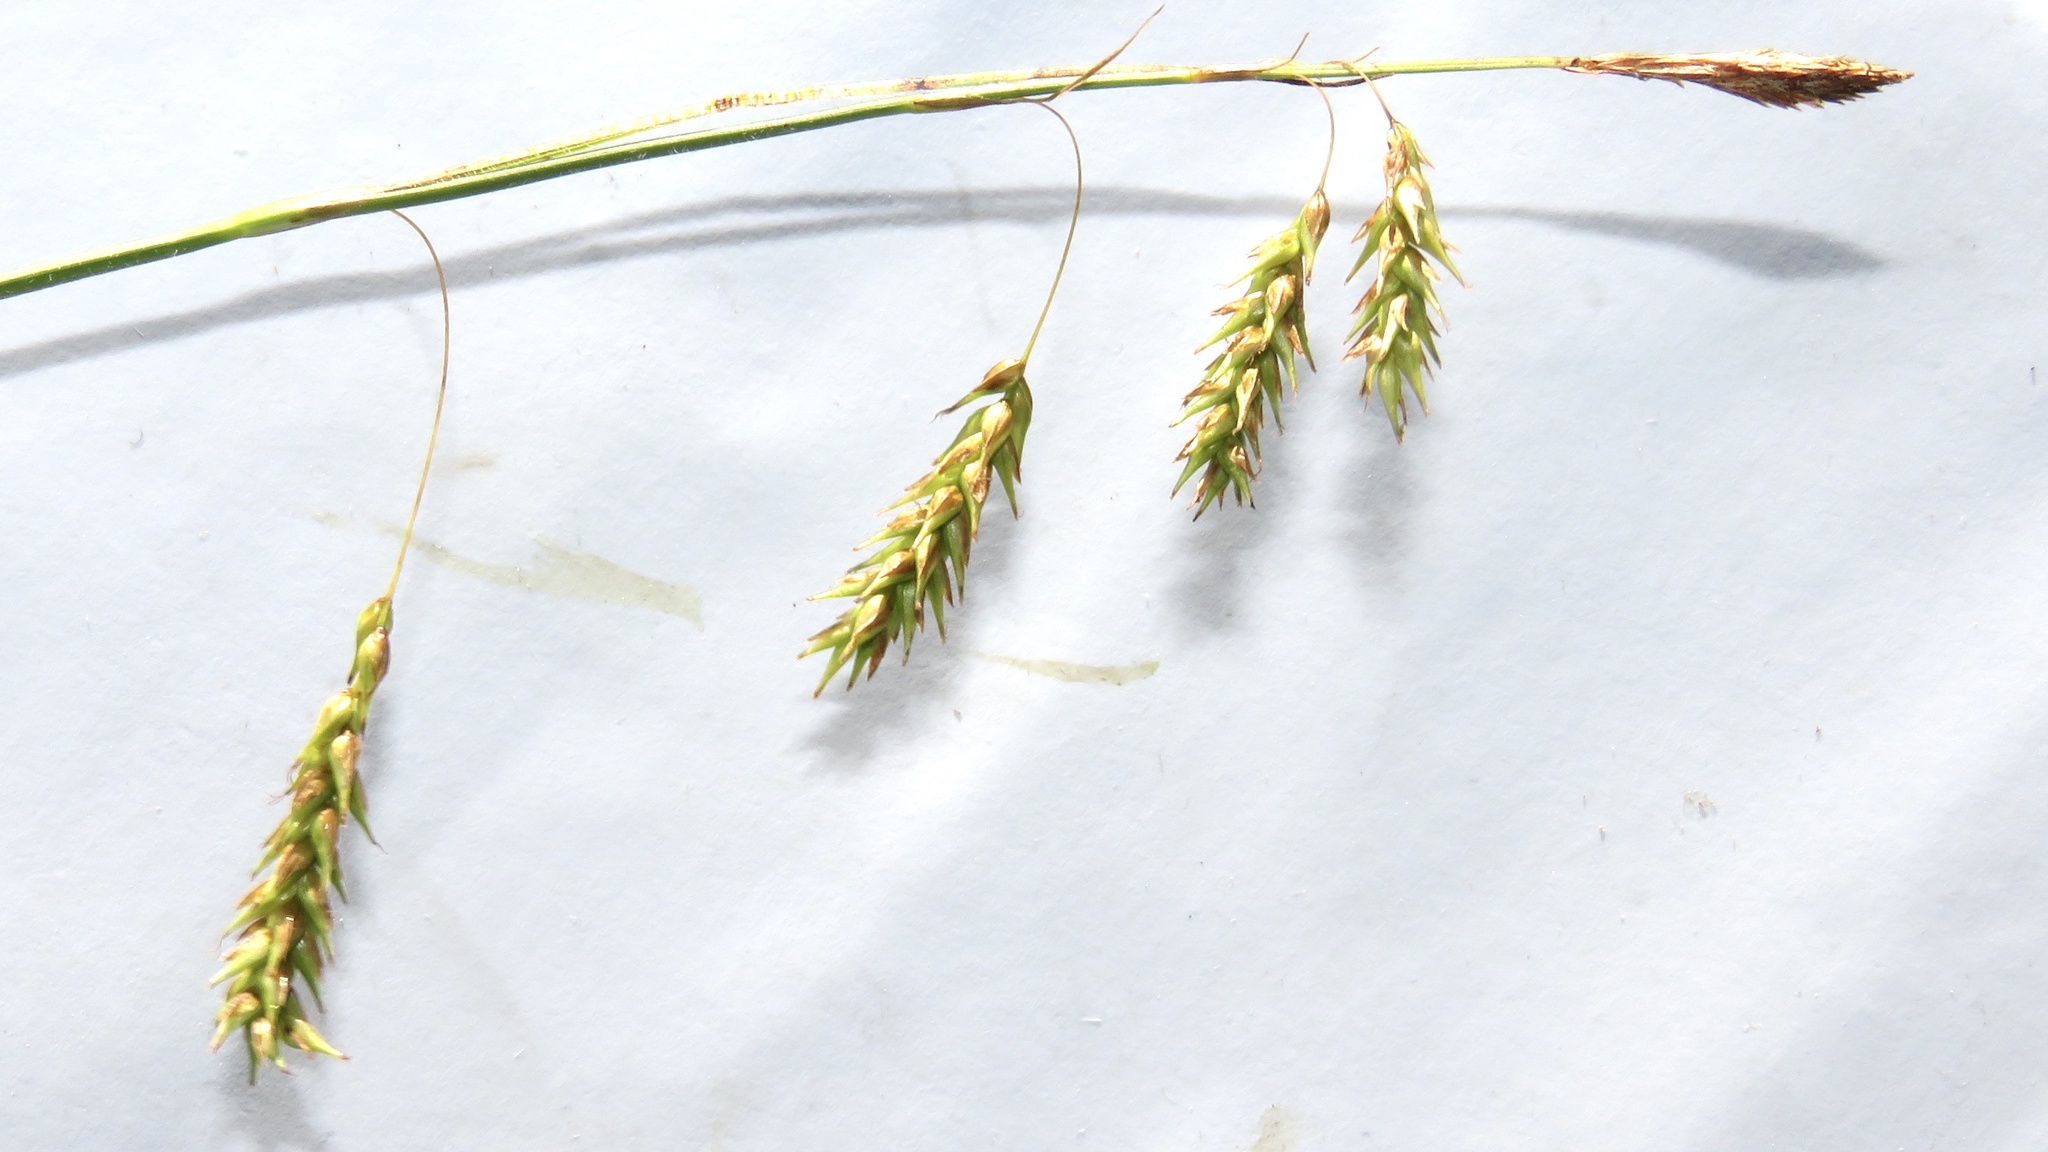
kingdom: Plantae
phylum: Tracheophyta
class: Liliopsida
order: Poales
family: Cyperaceae
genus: Carex
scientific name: Carex castanea
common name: Chestnut sedge
